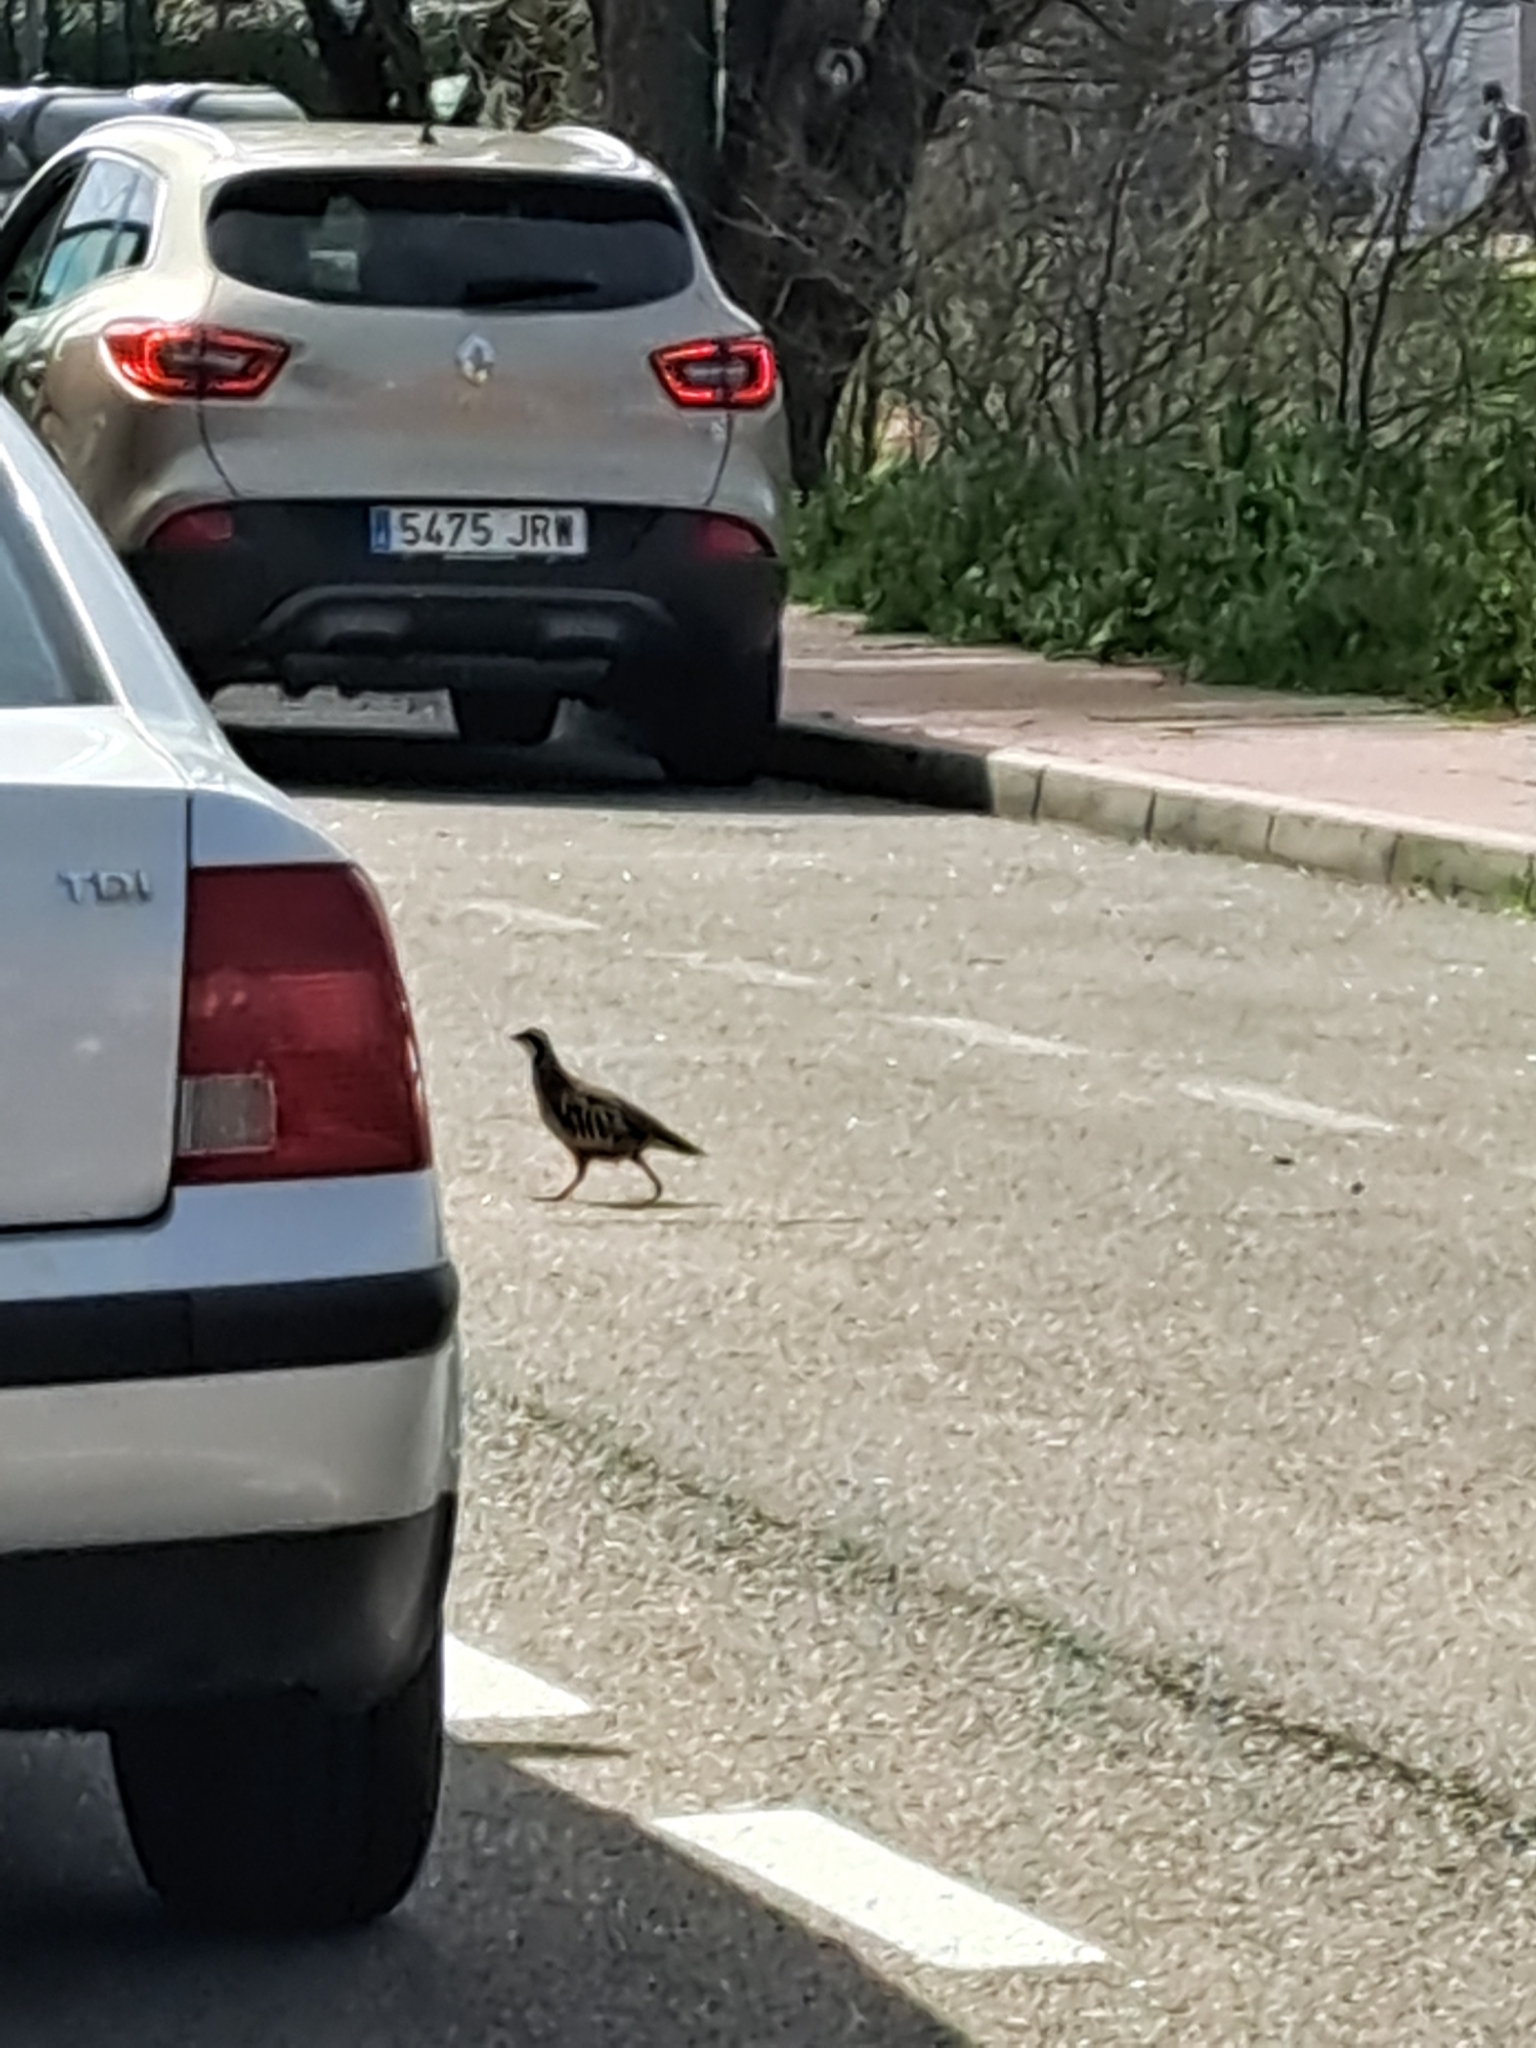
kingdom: Animalia
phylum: Chordata
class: Aves
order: Galliformes
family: Phasianidae
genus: Alectoris
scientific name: Alectoris rufa
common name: Red-legged partridge
